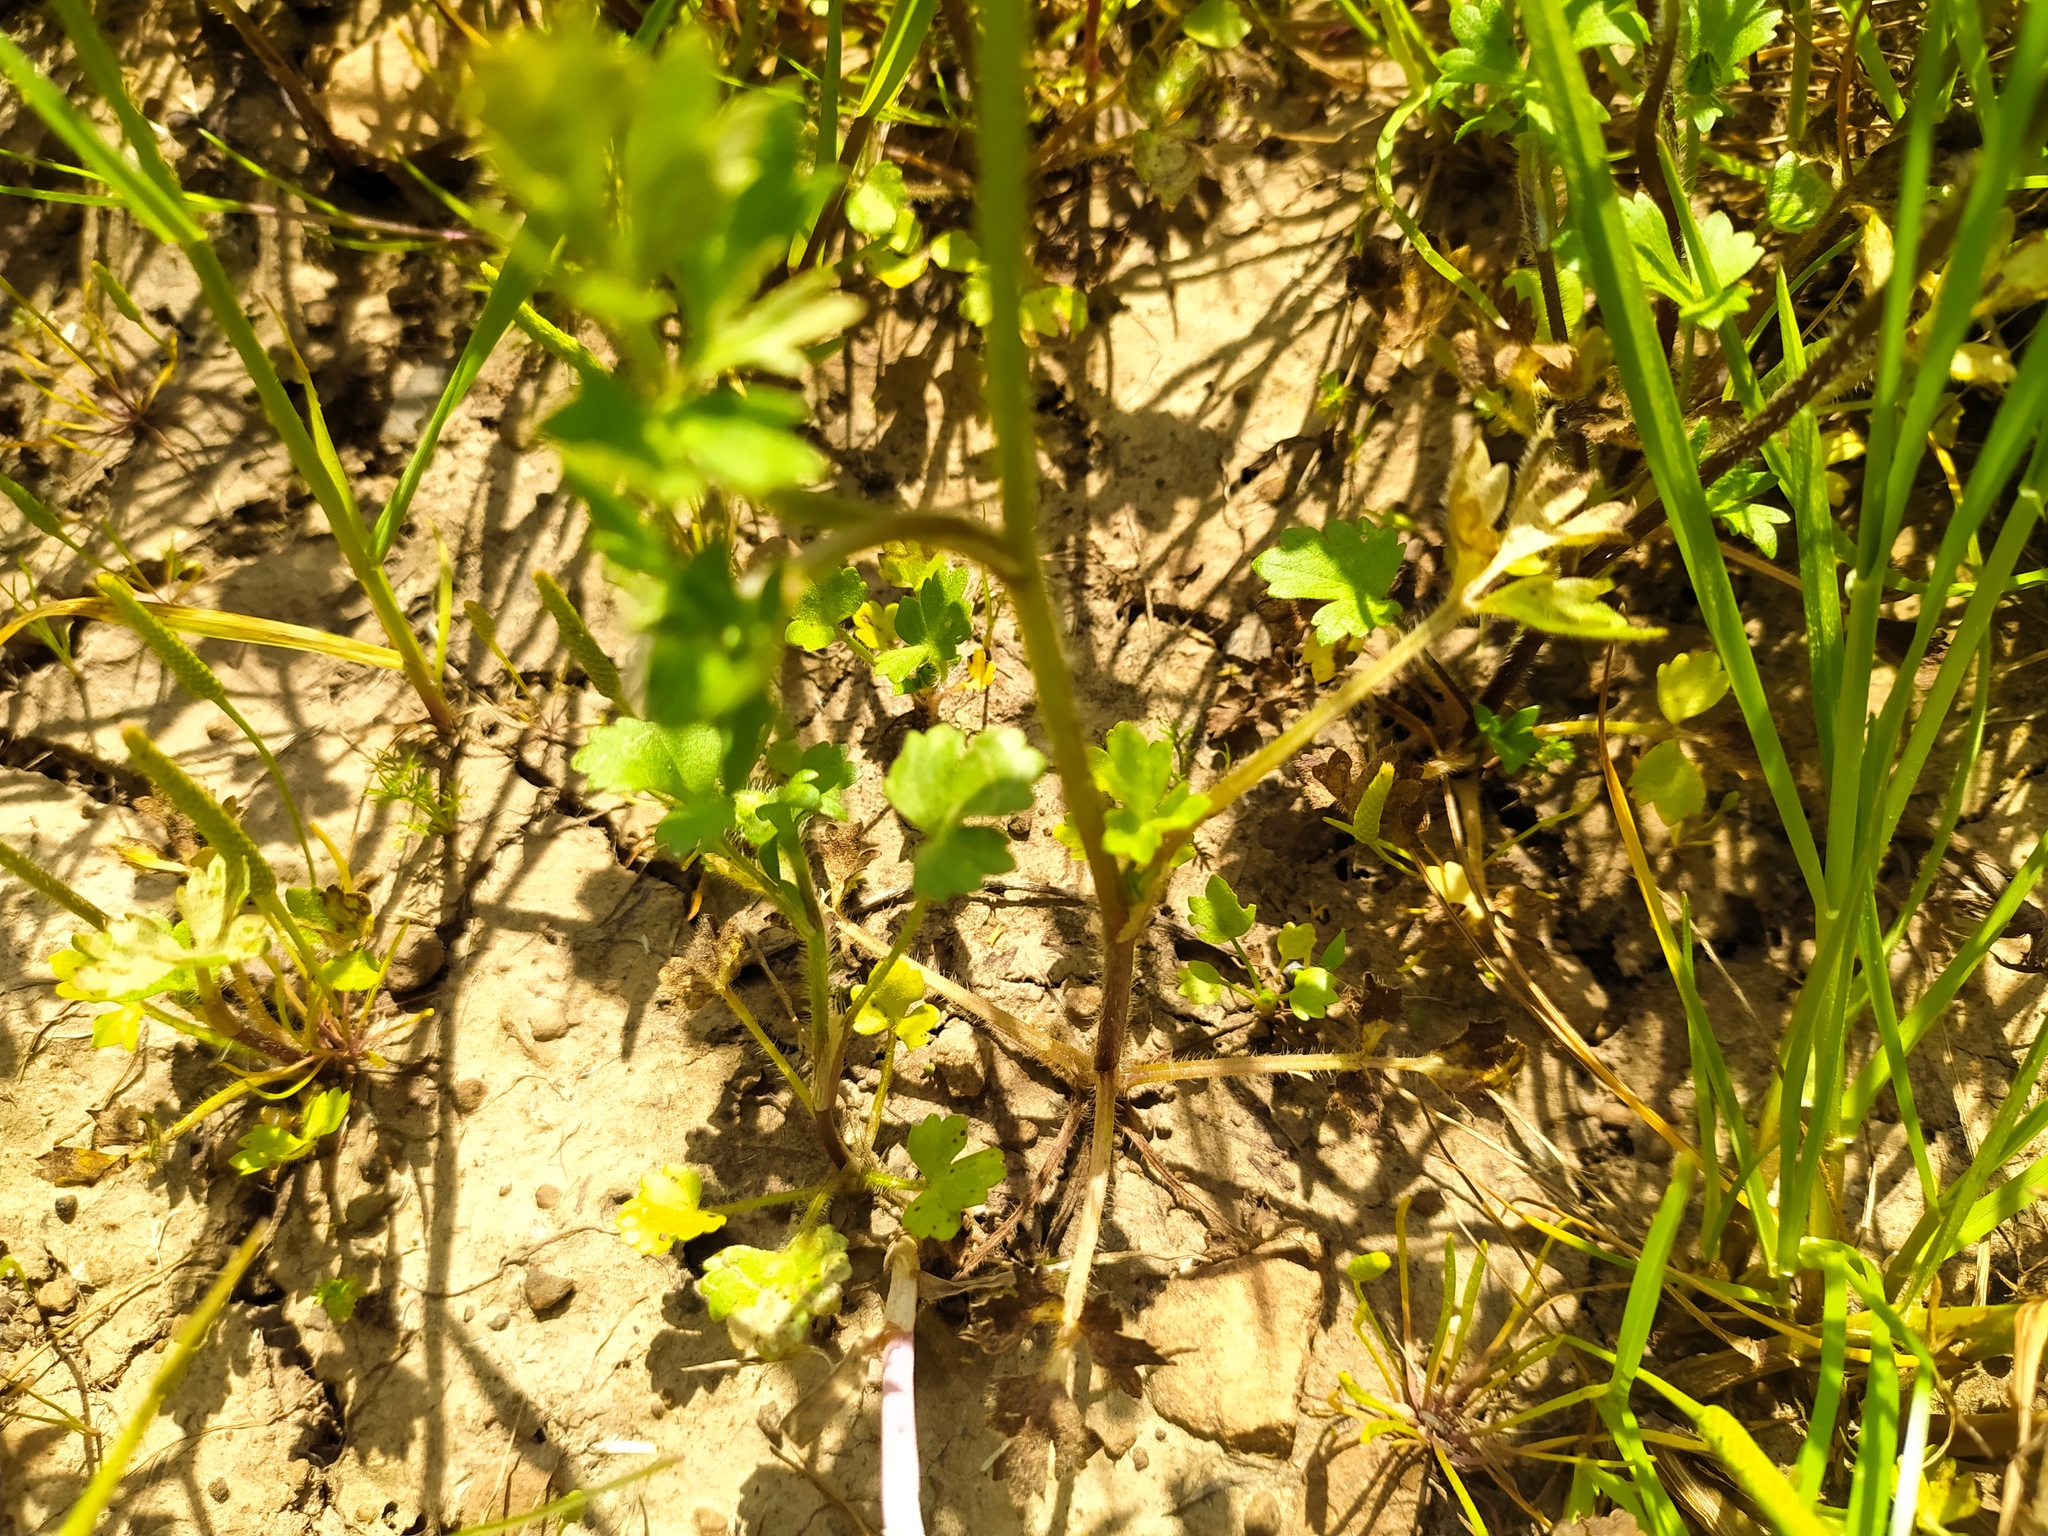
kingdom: Plantae
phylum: Tracheophyta
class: Magnoliopsida
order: Ranunculales
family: Ranunculaceae
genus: Ranunculus
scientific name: Ranunculus sardous
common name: Hairy buttercup
